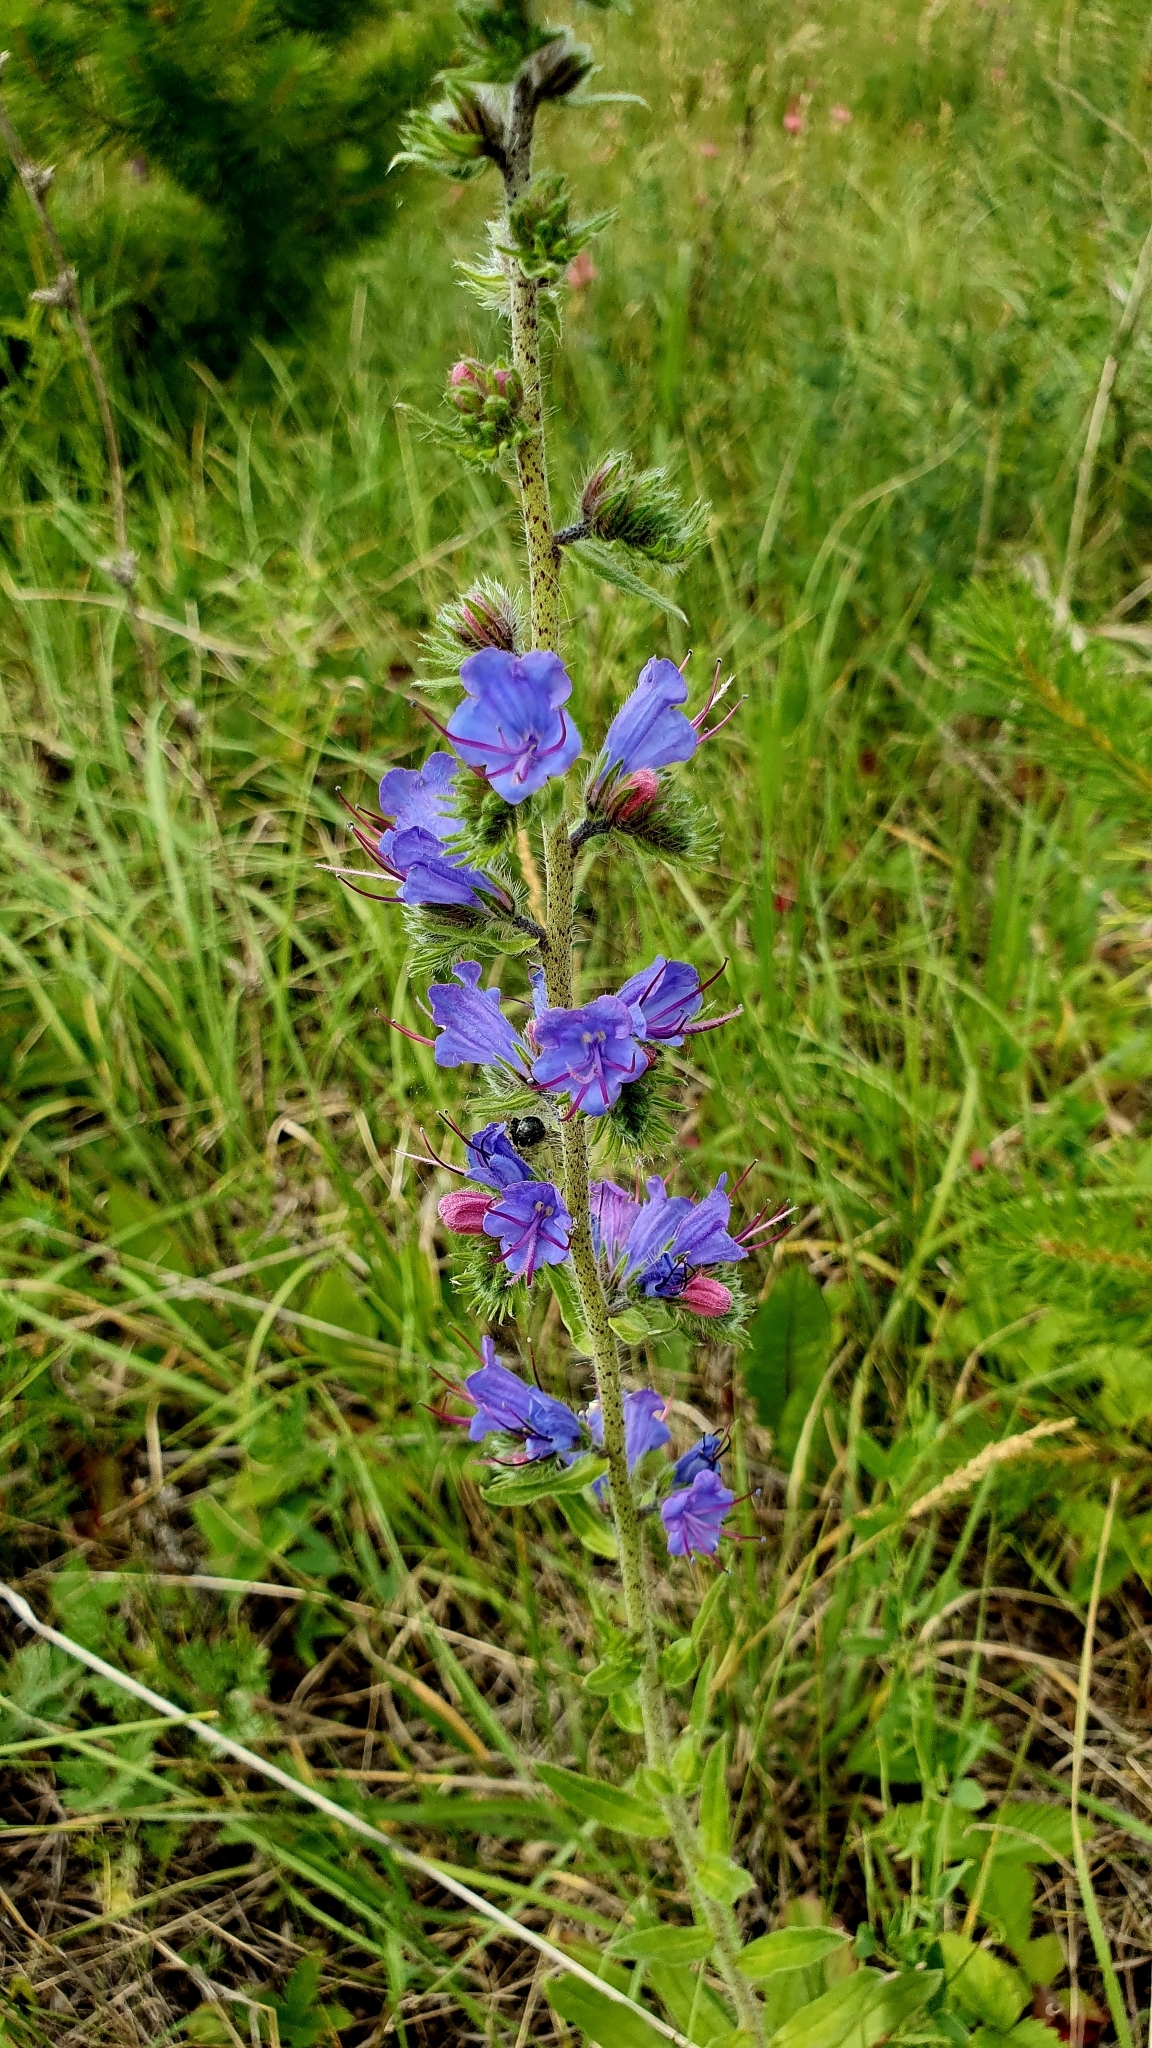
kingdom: Plantae
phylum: Tracheophyta
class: Magnoliopsida
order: Boraginales
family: Boraginaceae
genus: Echium
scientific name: Echium vulgare
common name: Common viper's bugloss
